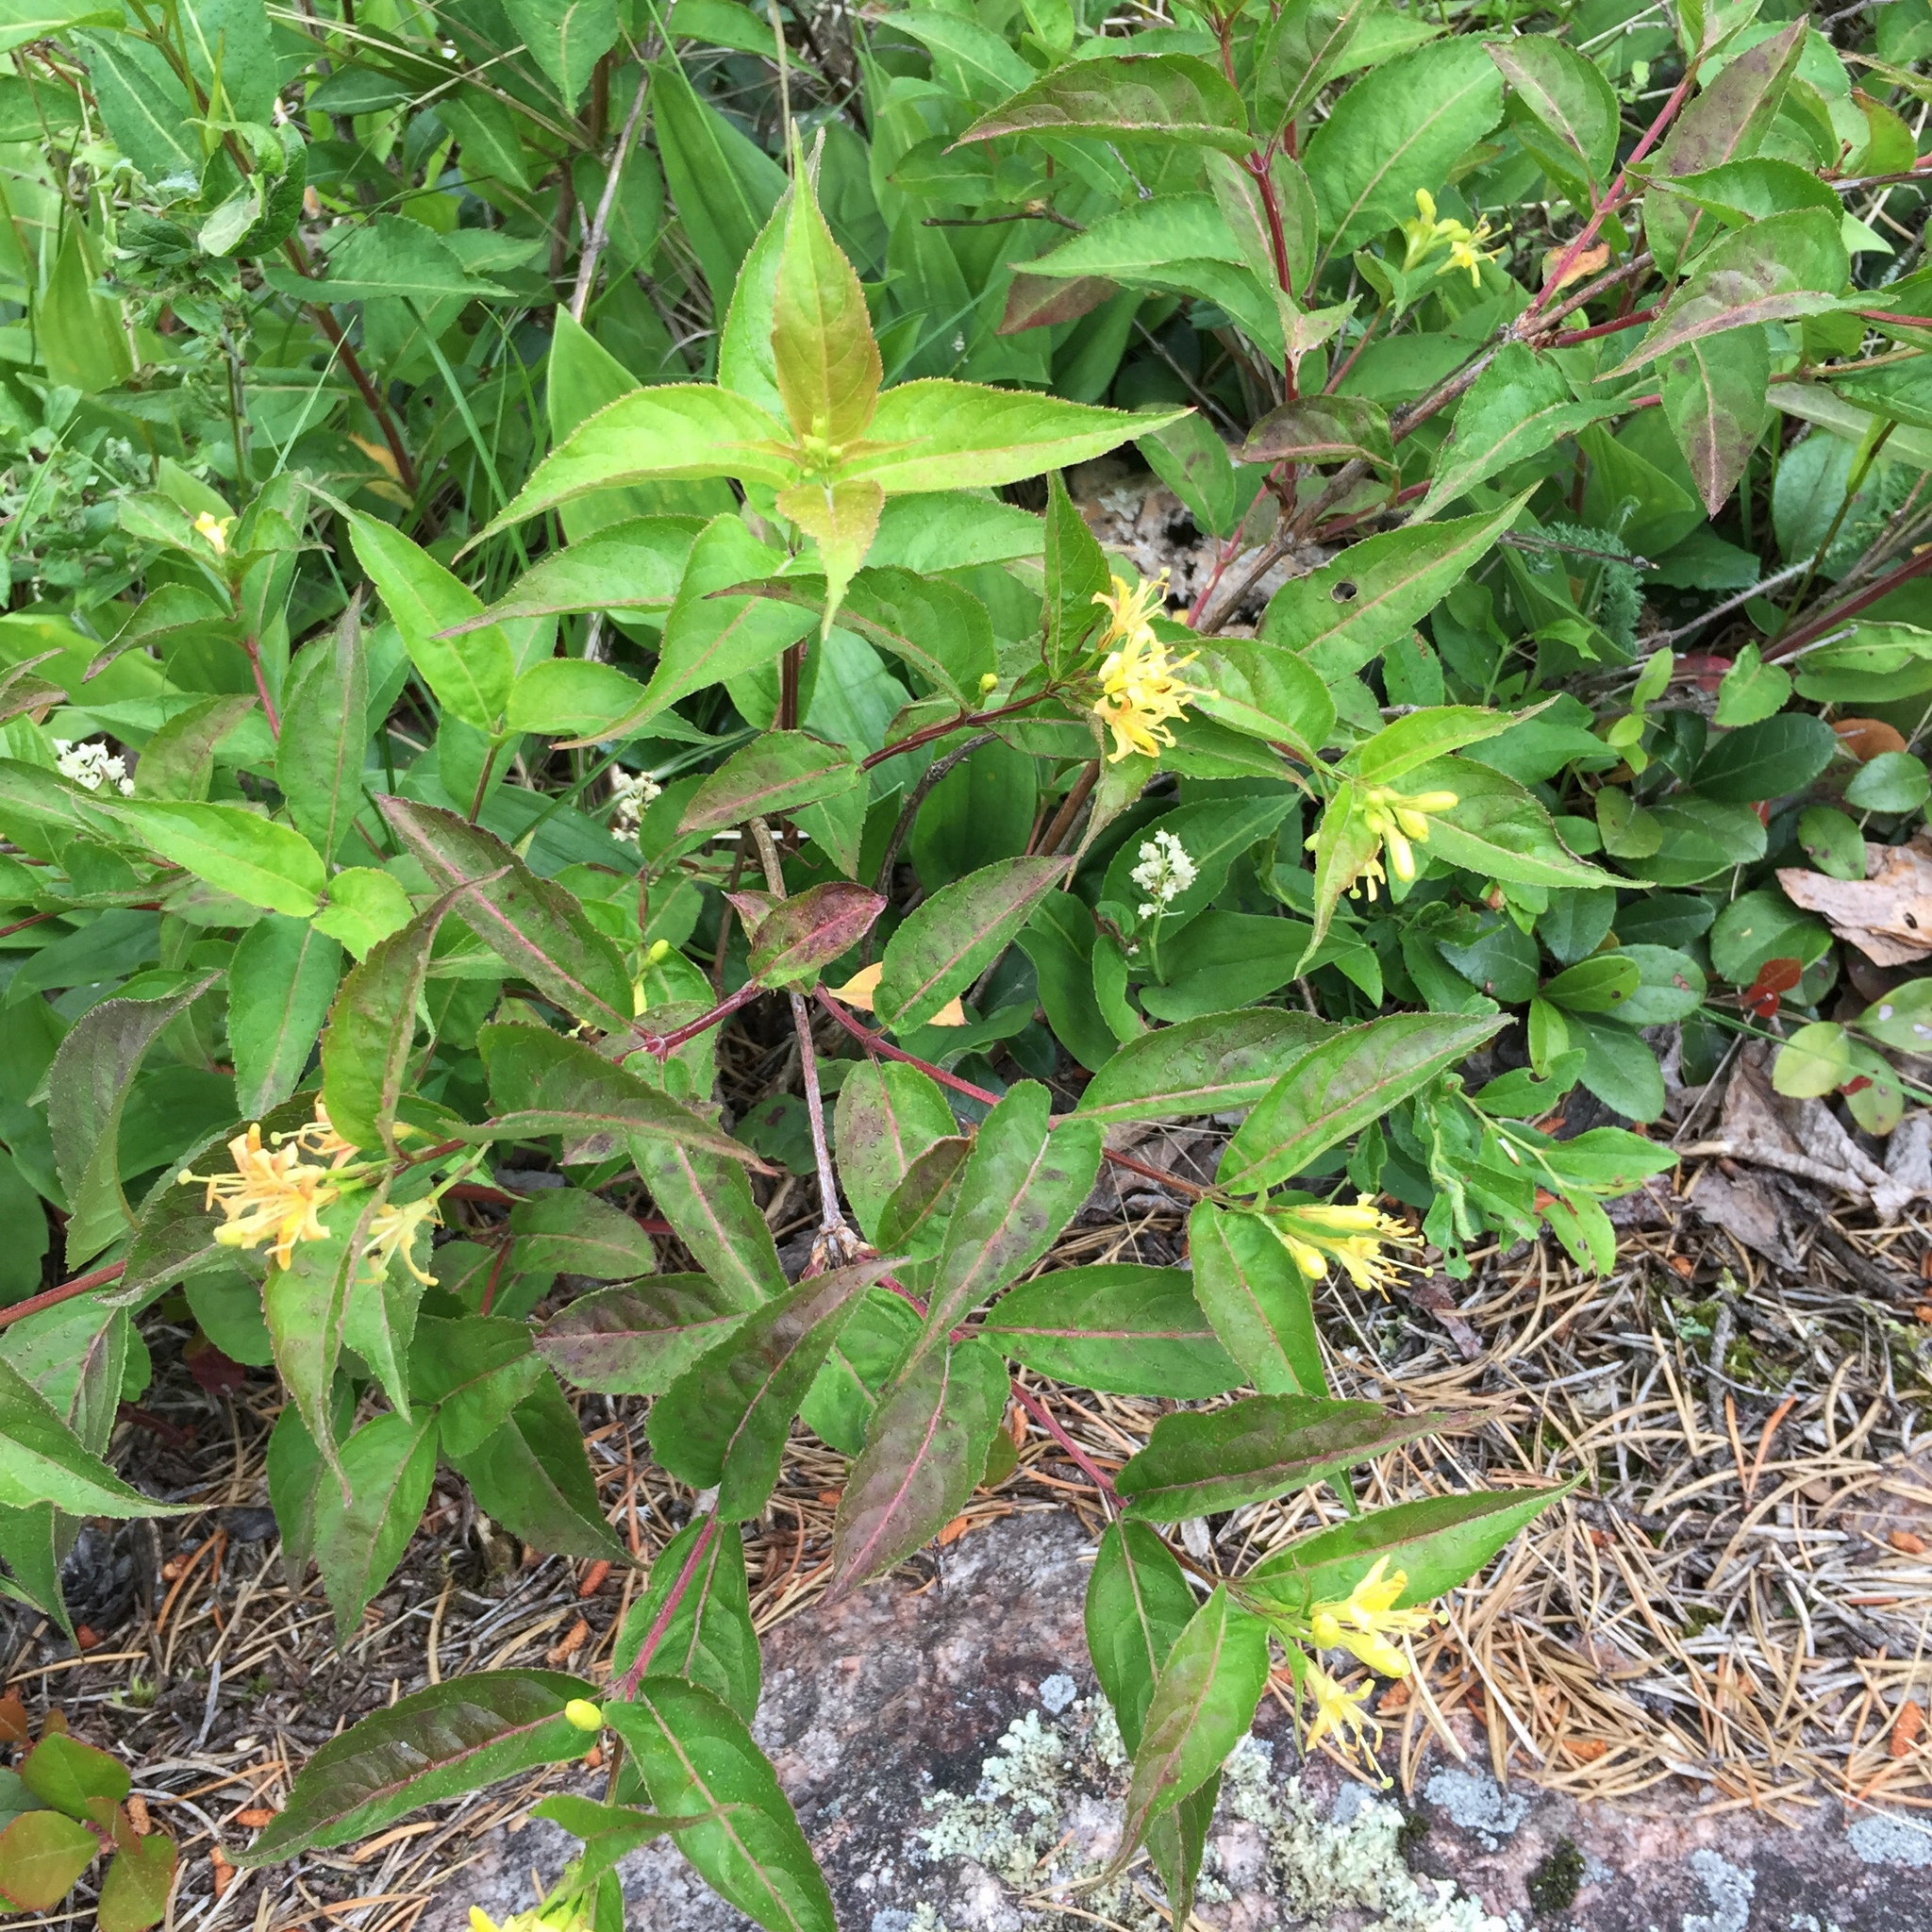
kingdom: Plantae
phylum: Tracheophyta
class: Magnoliopsida
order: Dipsacales
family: Caprifoliaceae
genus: Diervilla
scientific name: Diervilla lonicera
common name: Bush-honeysuckle
